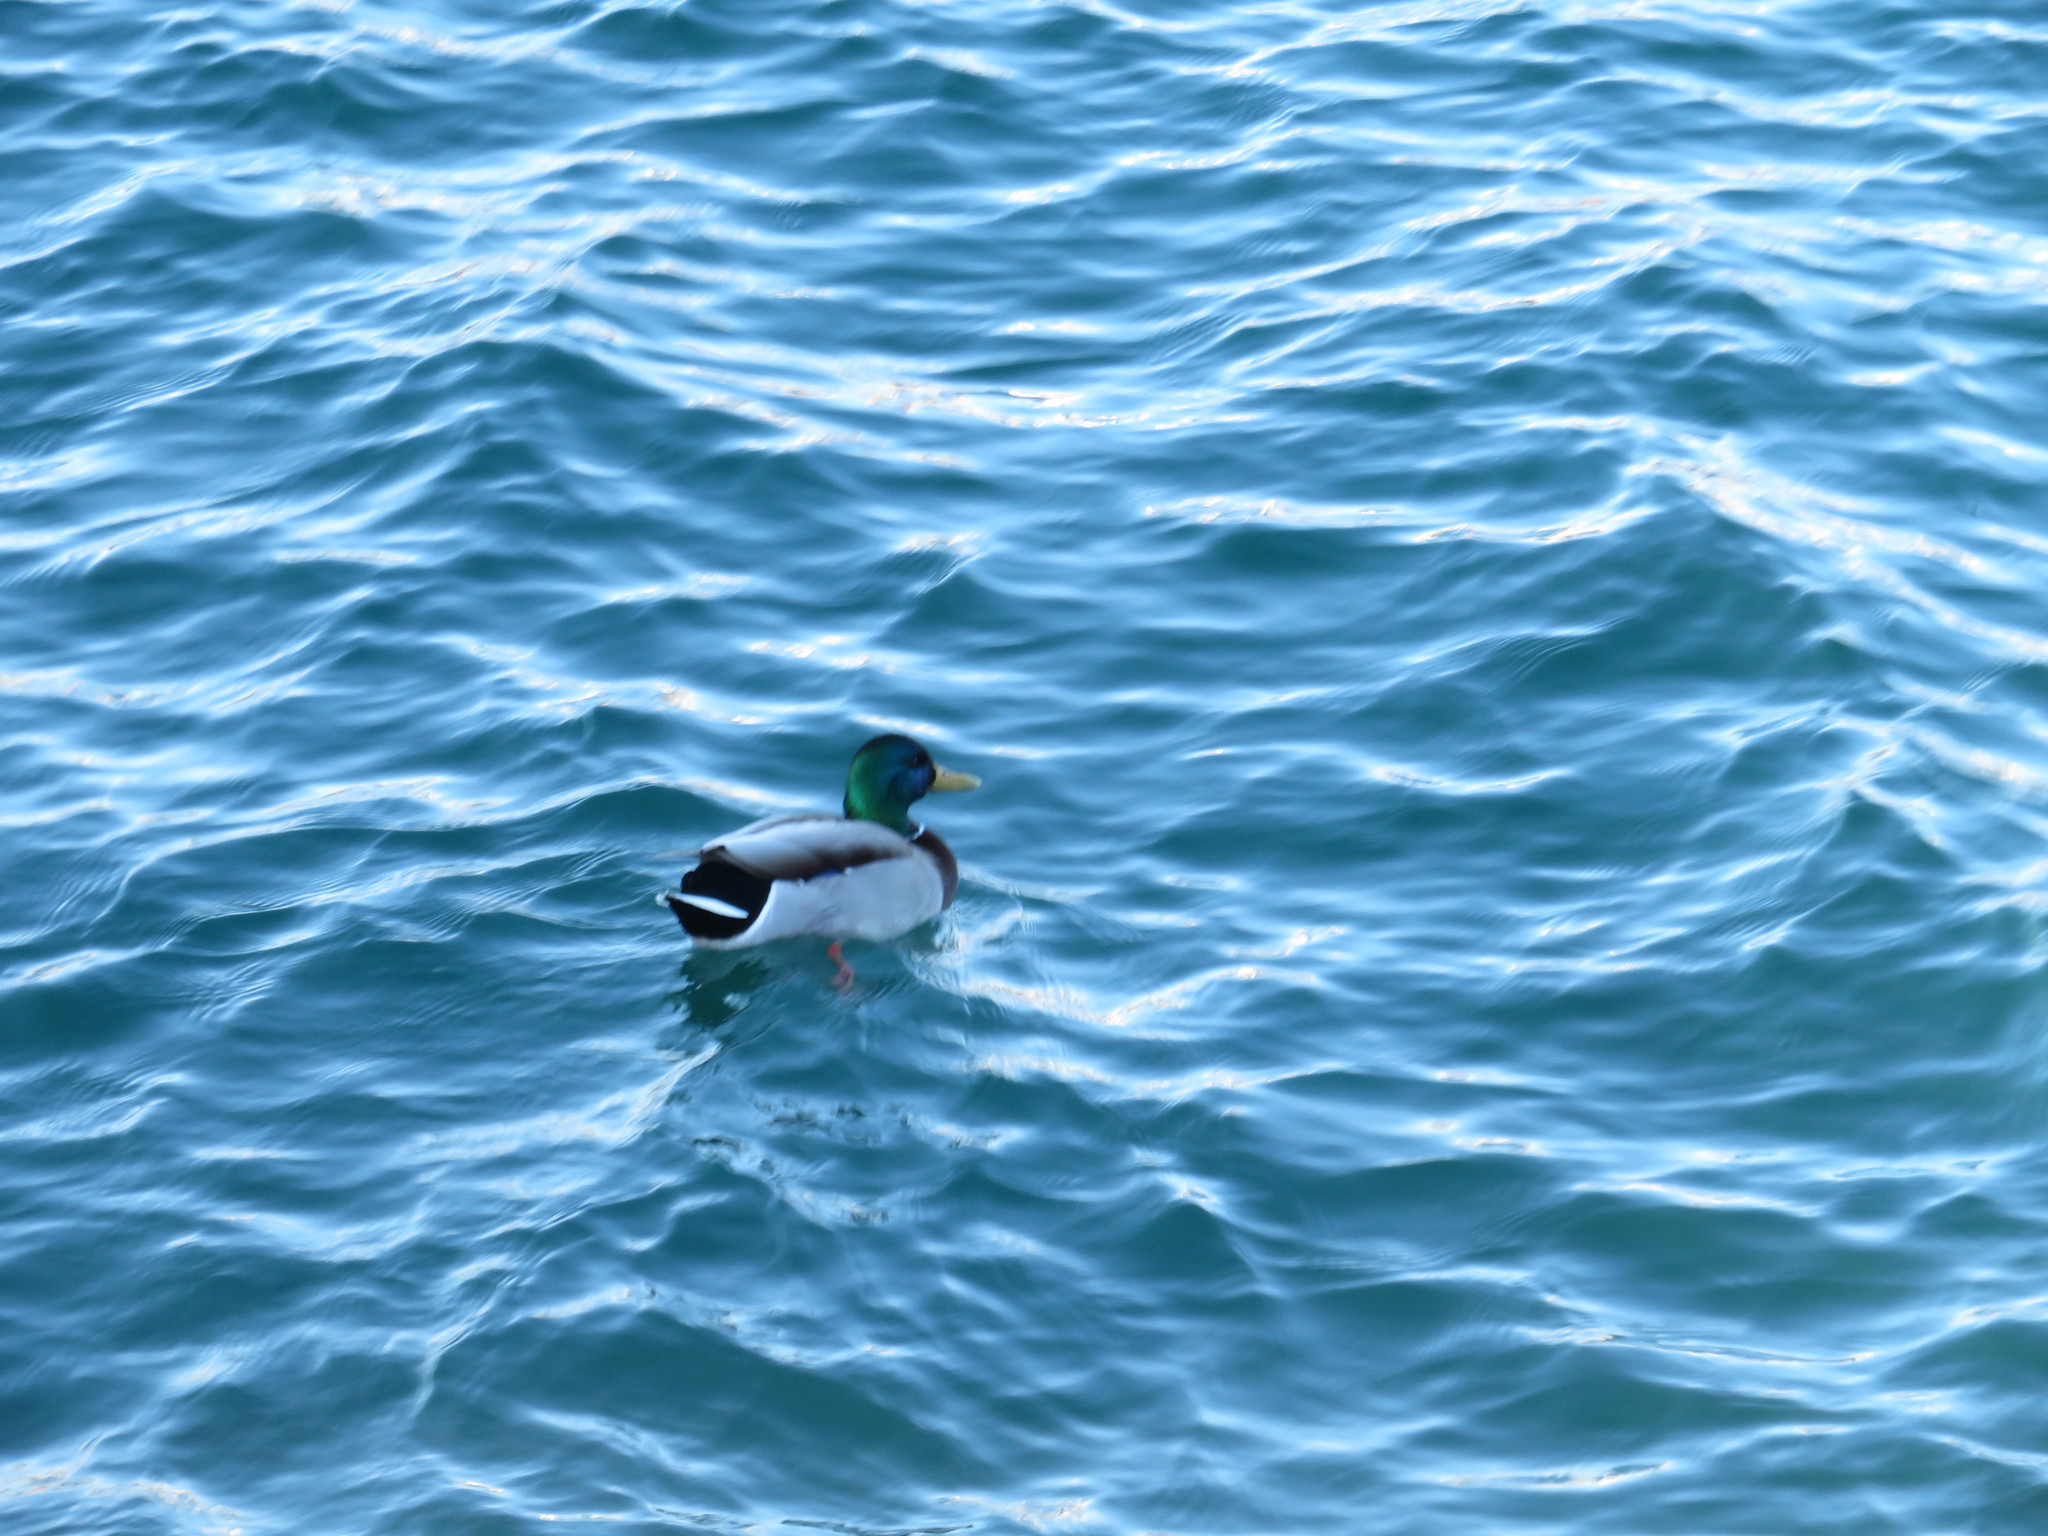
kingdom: Animalia
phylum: Chordata
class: Aves
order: Anseriformes
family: Anatidae
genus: Anas
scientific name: Anas platyrhynchos
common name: Mallard
